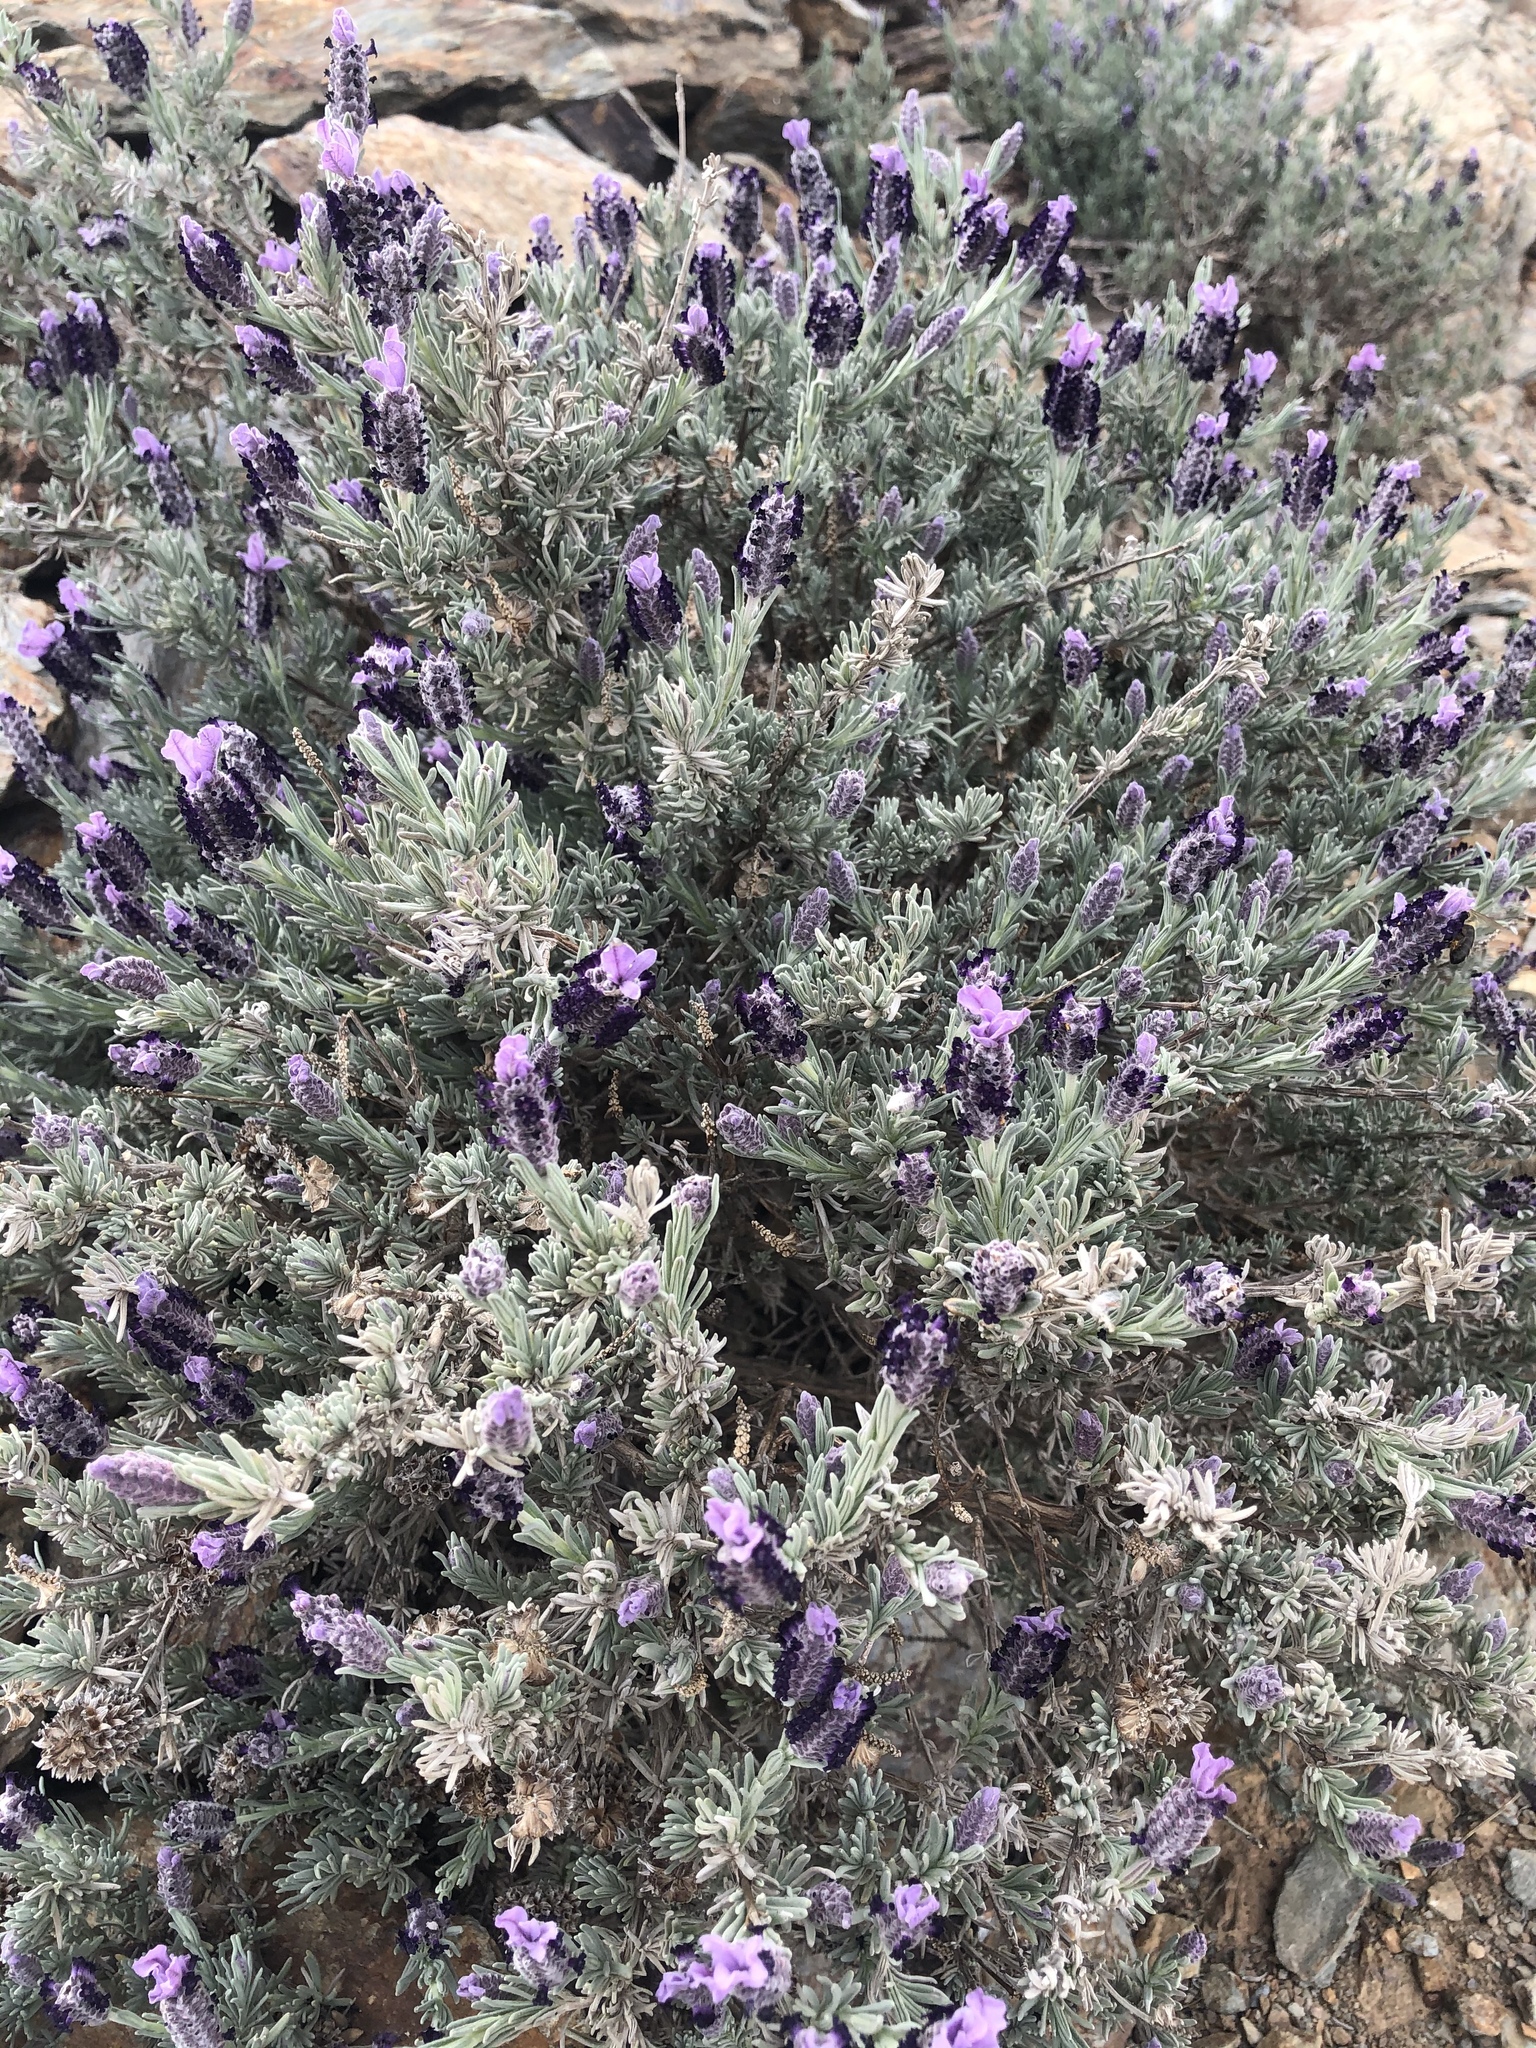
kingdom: Plantae
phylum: Tracheophyta
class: Magnoliopsida
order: Lamiales
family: Lamiaceae
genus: Lavandula
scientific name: Lavandula stoechas
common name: French lavender
